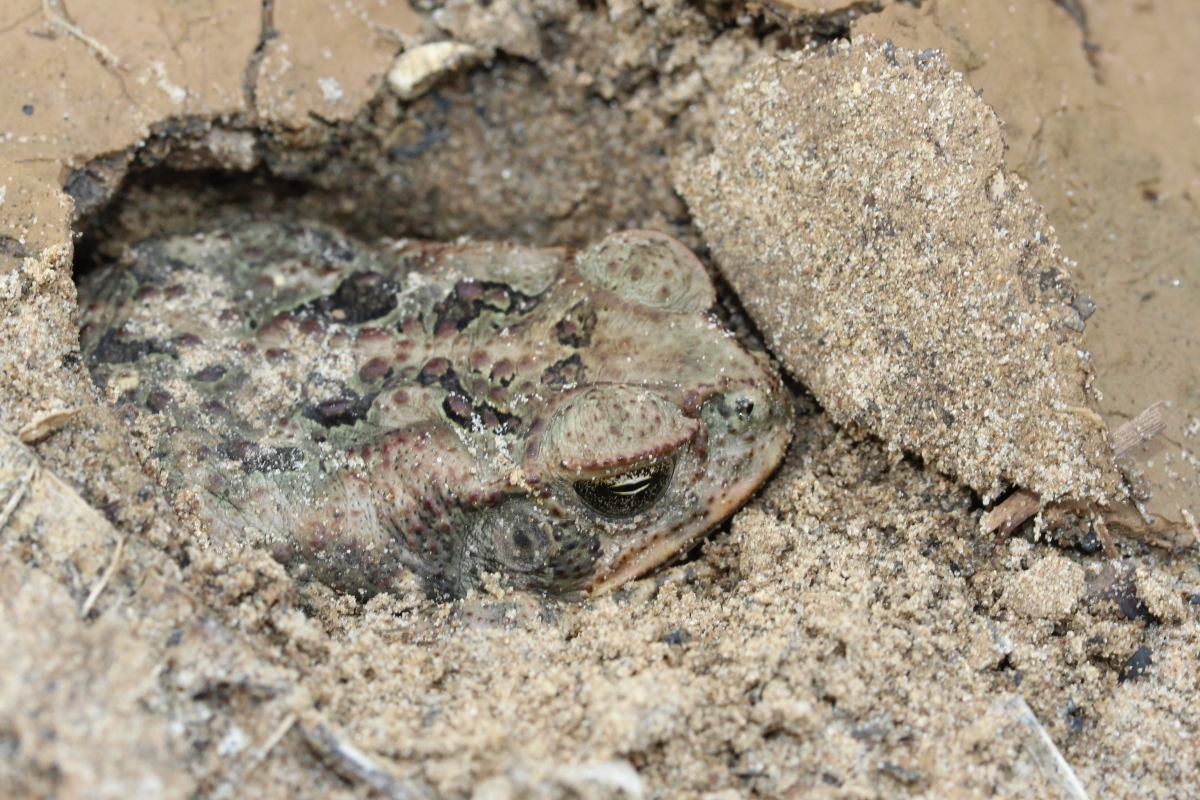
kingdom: Animalia
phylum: Chordata
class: Amphibia
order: Anura
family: Bufonidae
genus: Rhinella
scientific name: Rhinella marina
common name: Cane toad
